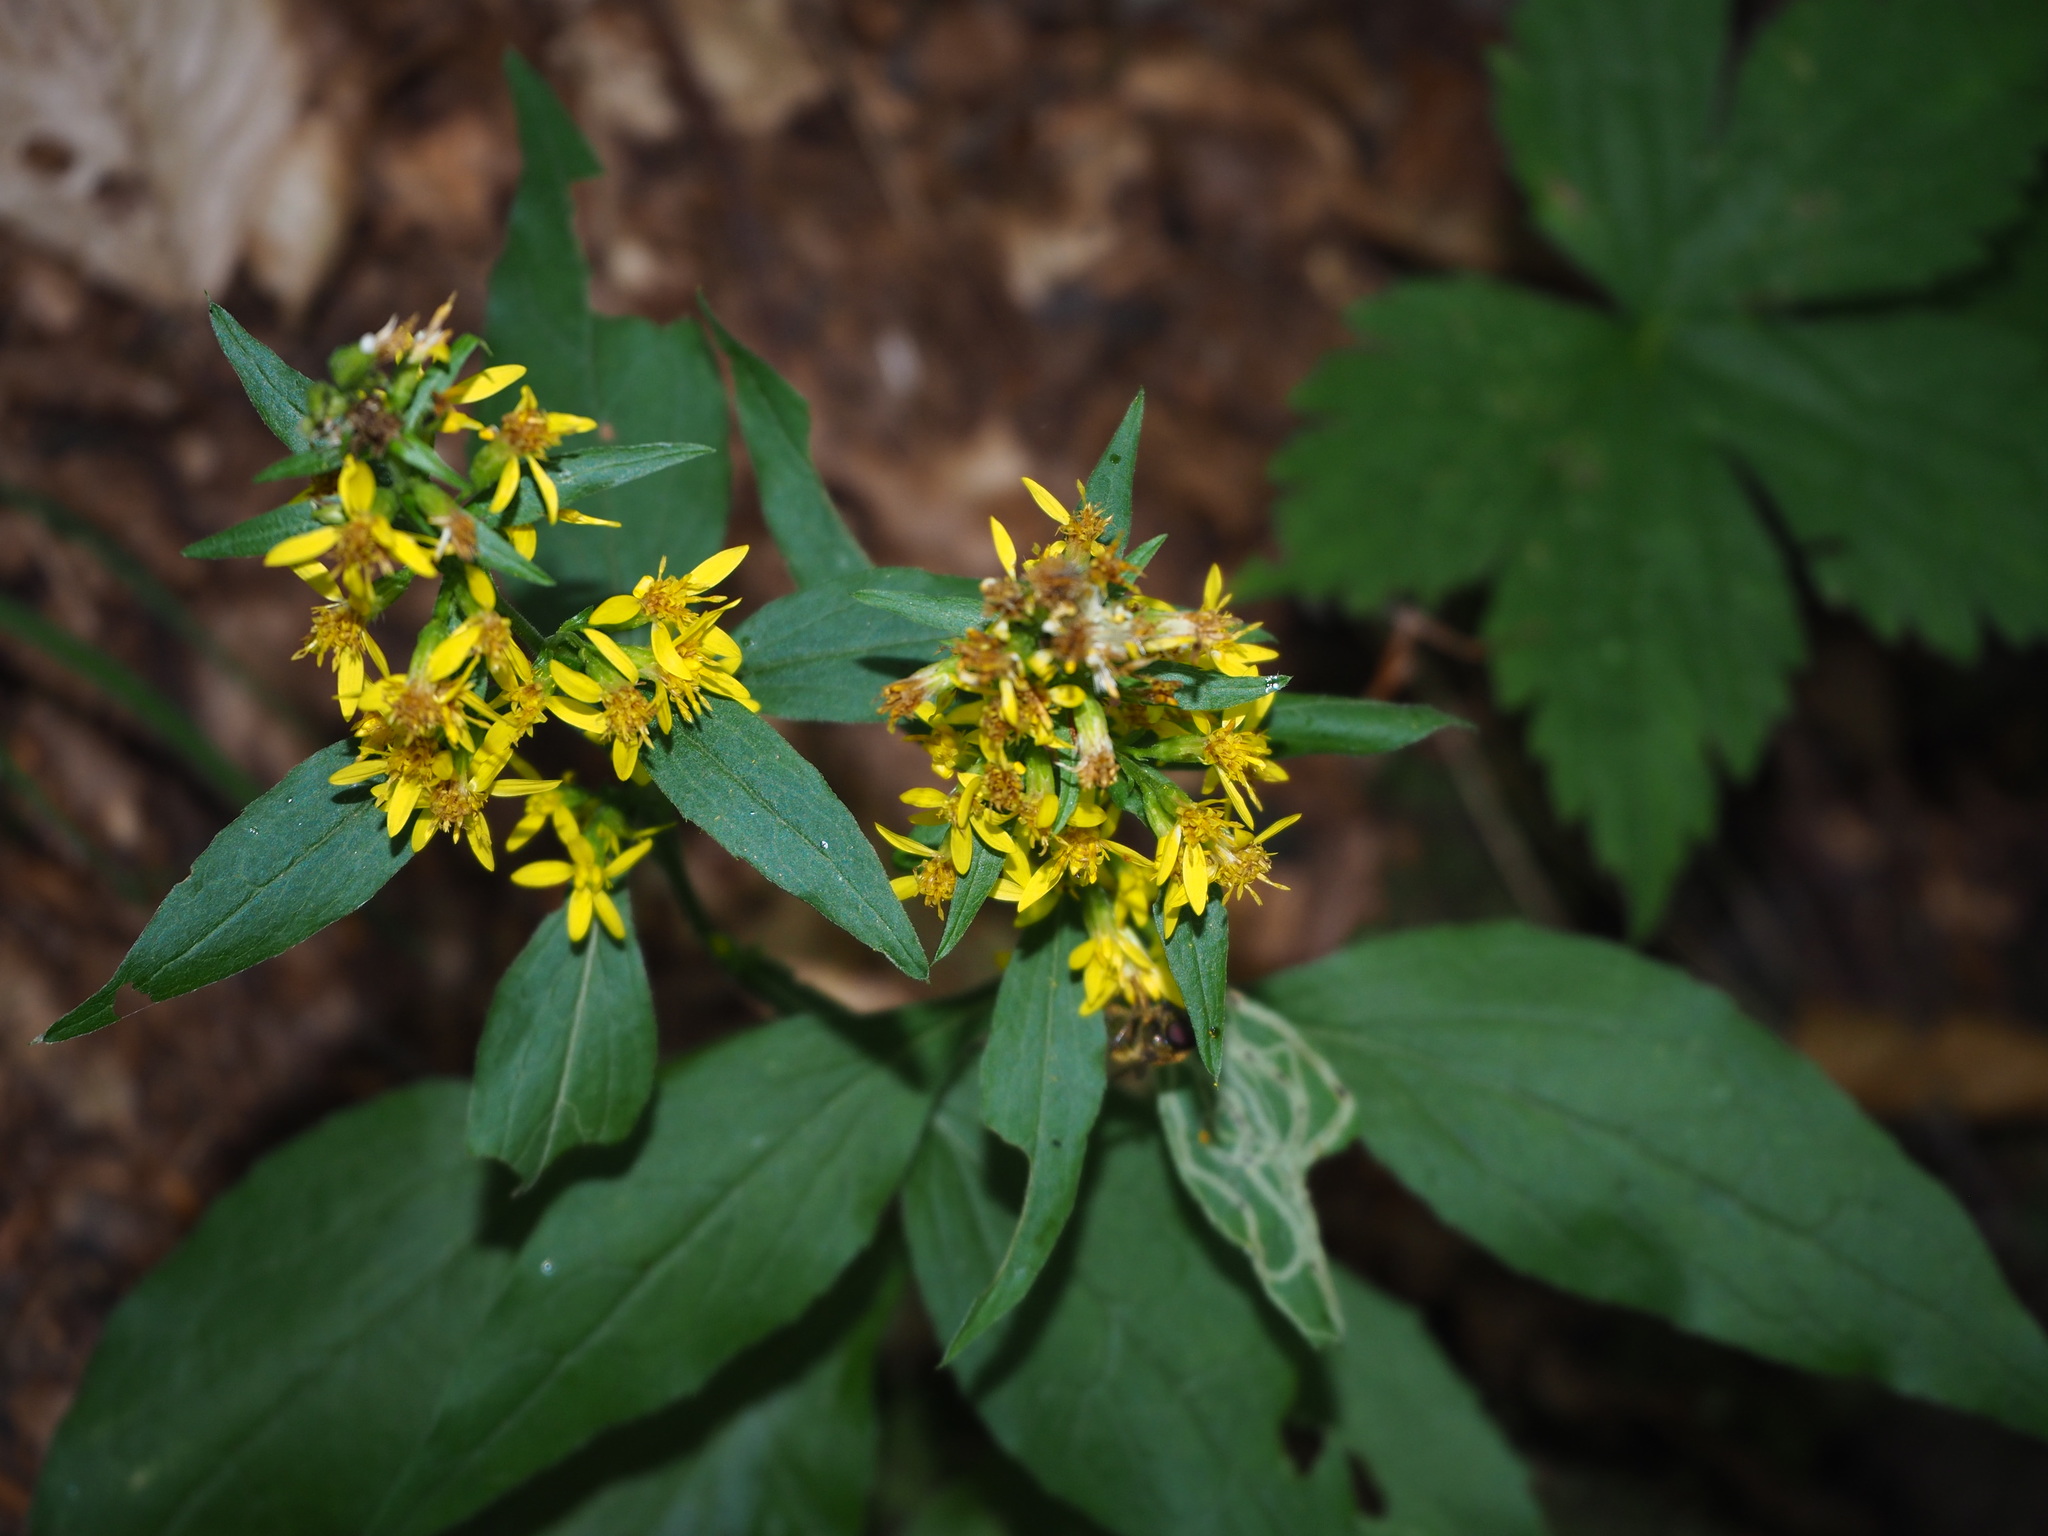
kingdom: Plantae
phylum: Tracheophyta
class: Magnoliopsida
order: Asterales
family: Asteraceae
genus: Solidago
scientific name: Solidago virgaurea
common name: Goldenrod
